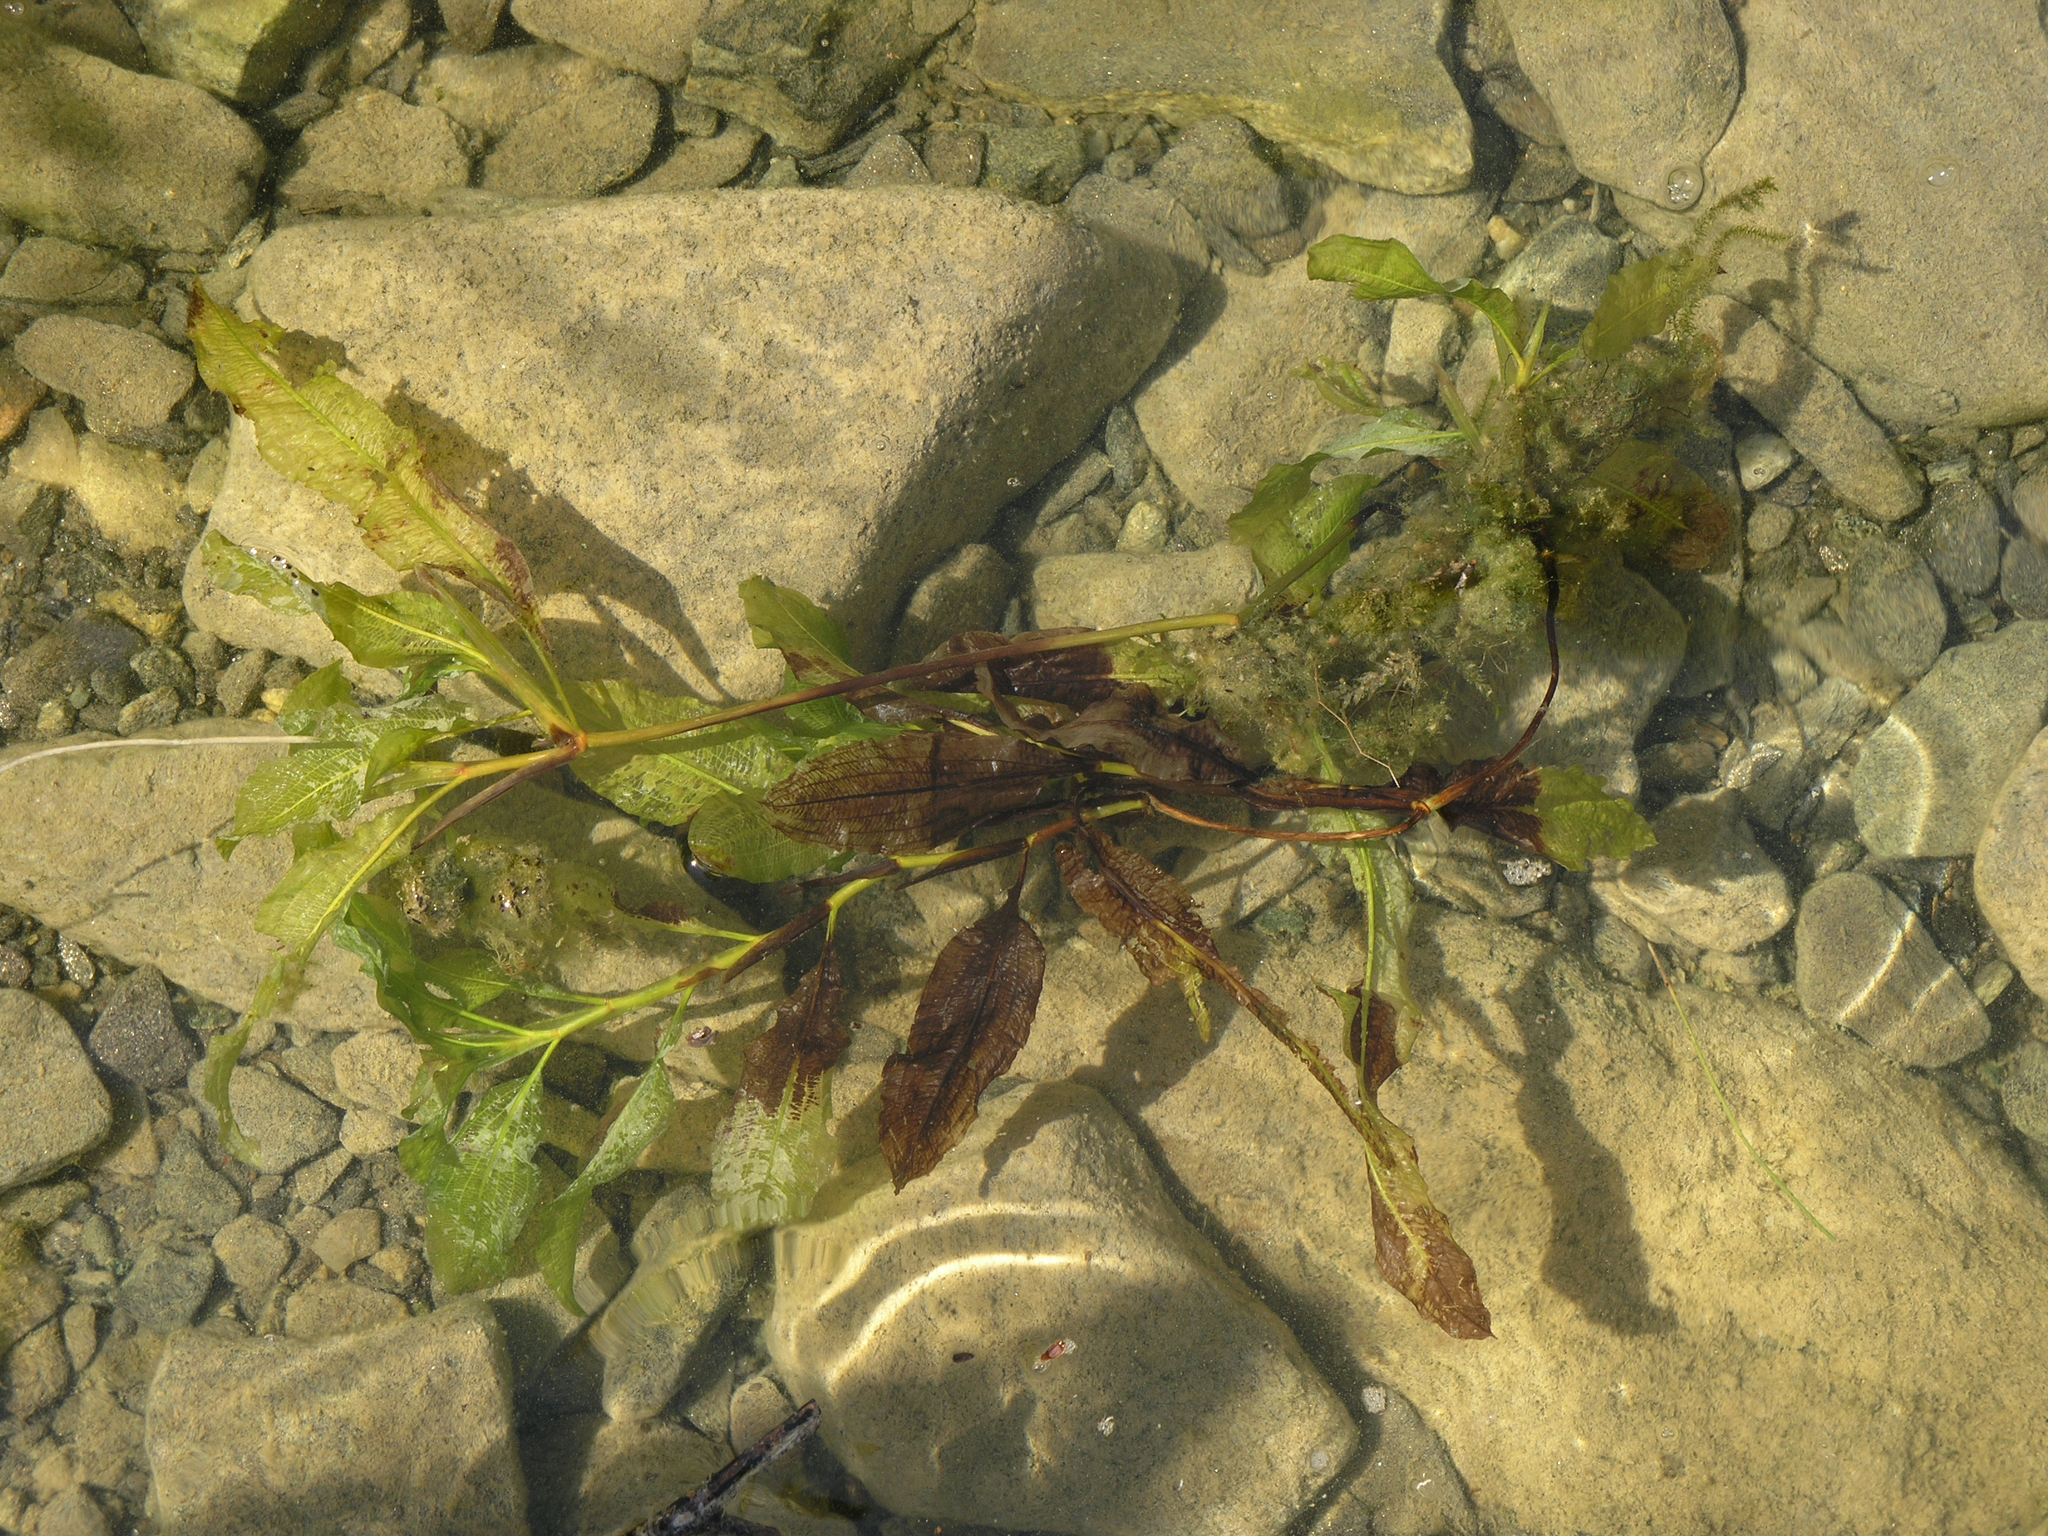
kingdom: Plantae
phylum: Tracheophyta
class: Liliopsida
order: Alismatales
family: Potamogetonaceae
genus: Potamogeton
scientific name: Potamogeton lucens
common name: Shining pondweed
